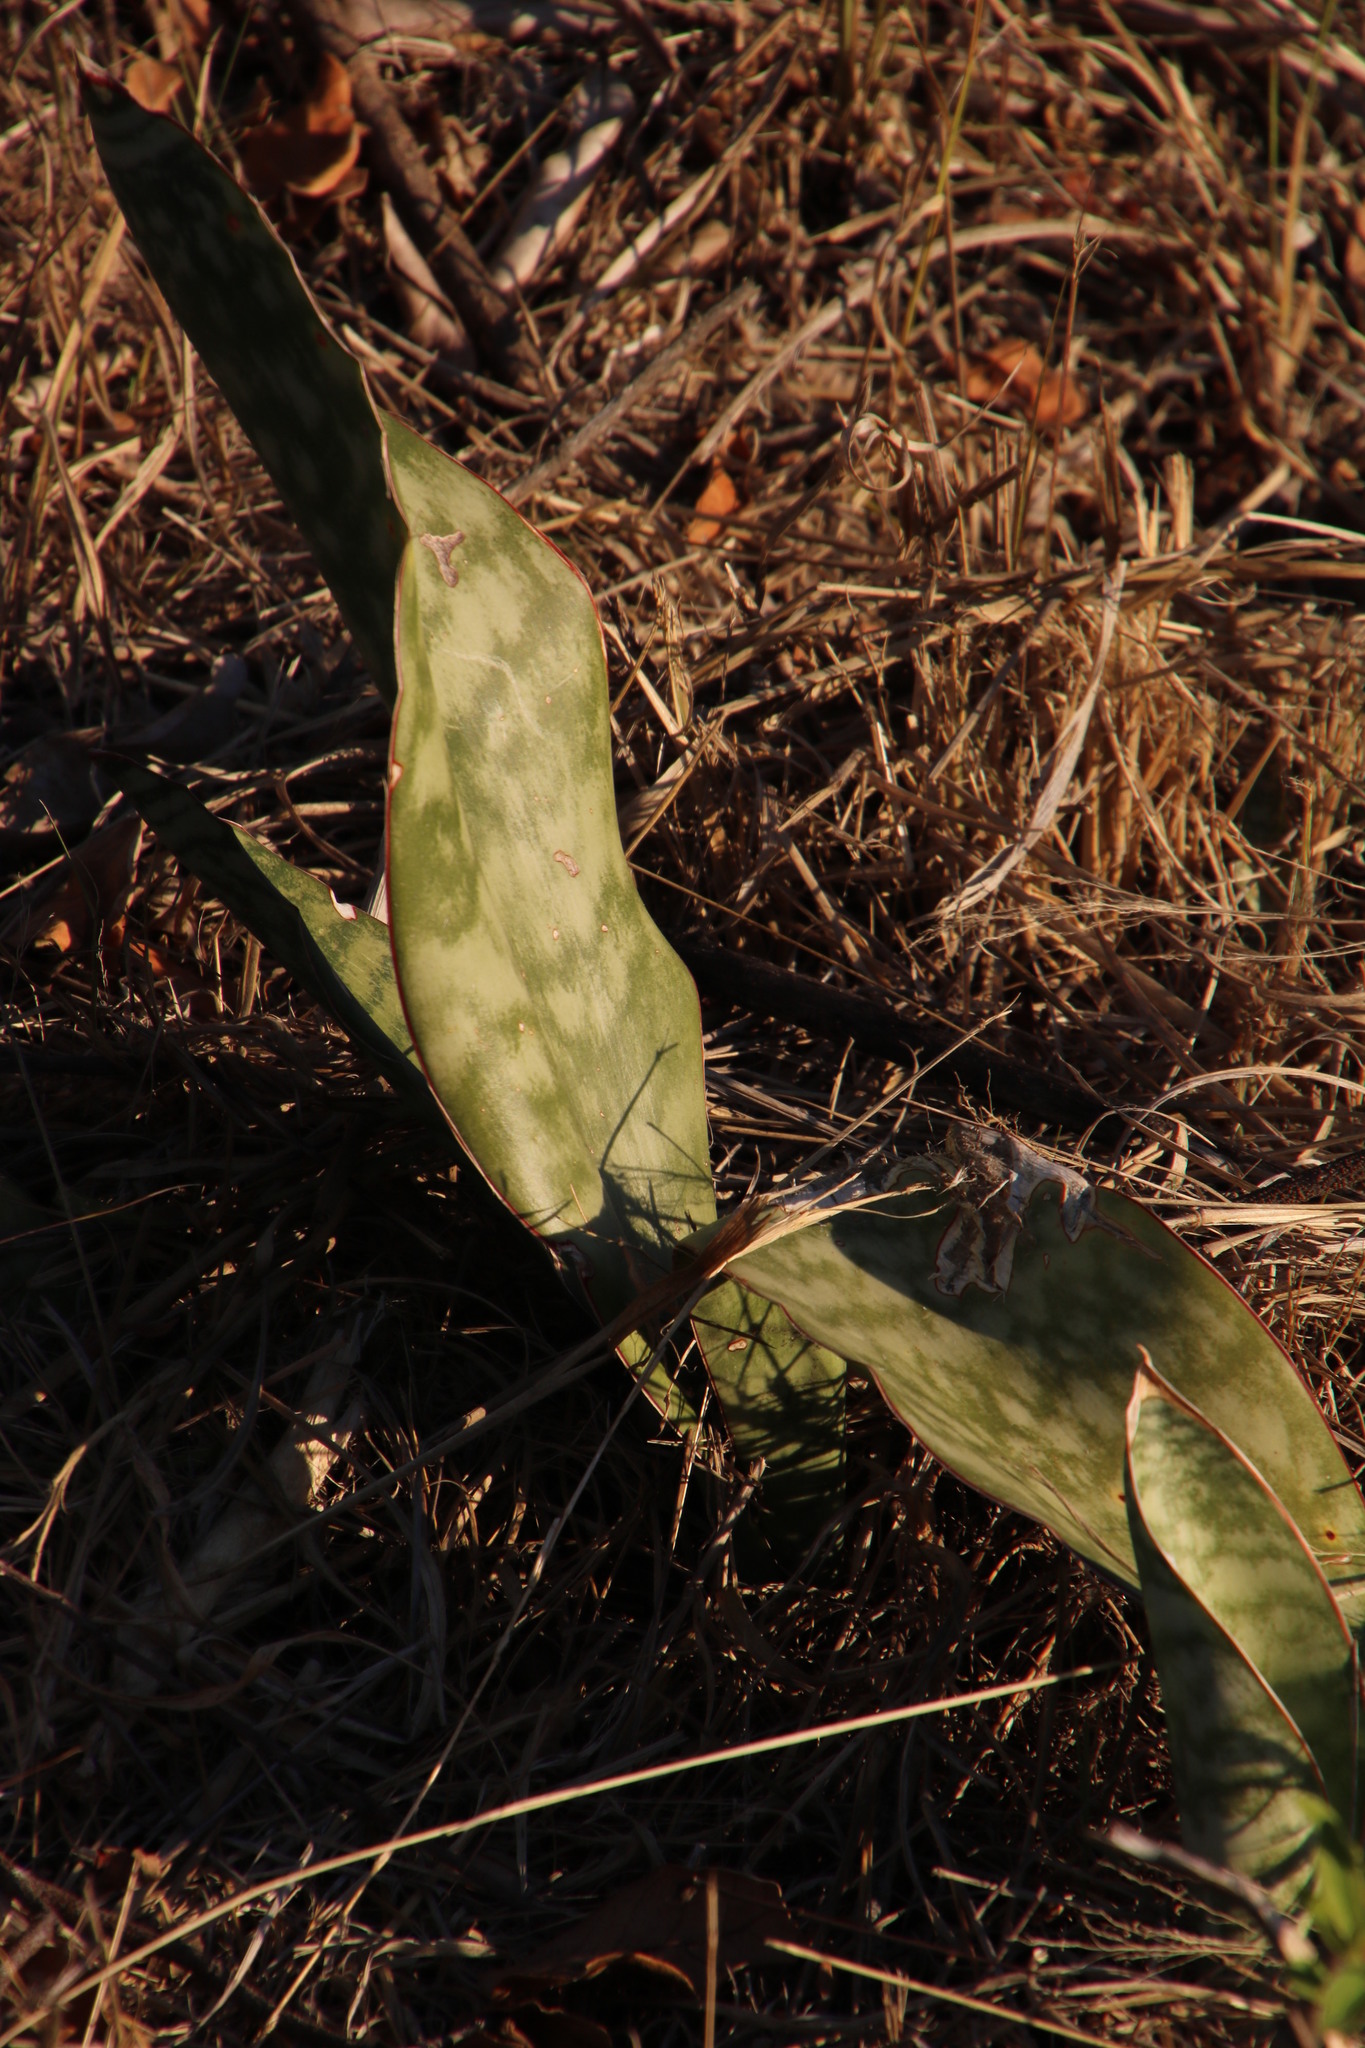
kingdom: Plantae
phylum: Tracheophyta
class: Liliopsida
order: Asparagales
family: Asparagaceae
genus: Dracaena
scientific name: Dracaena hyacinthoides
